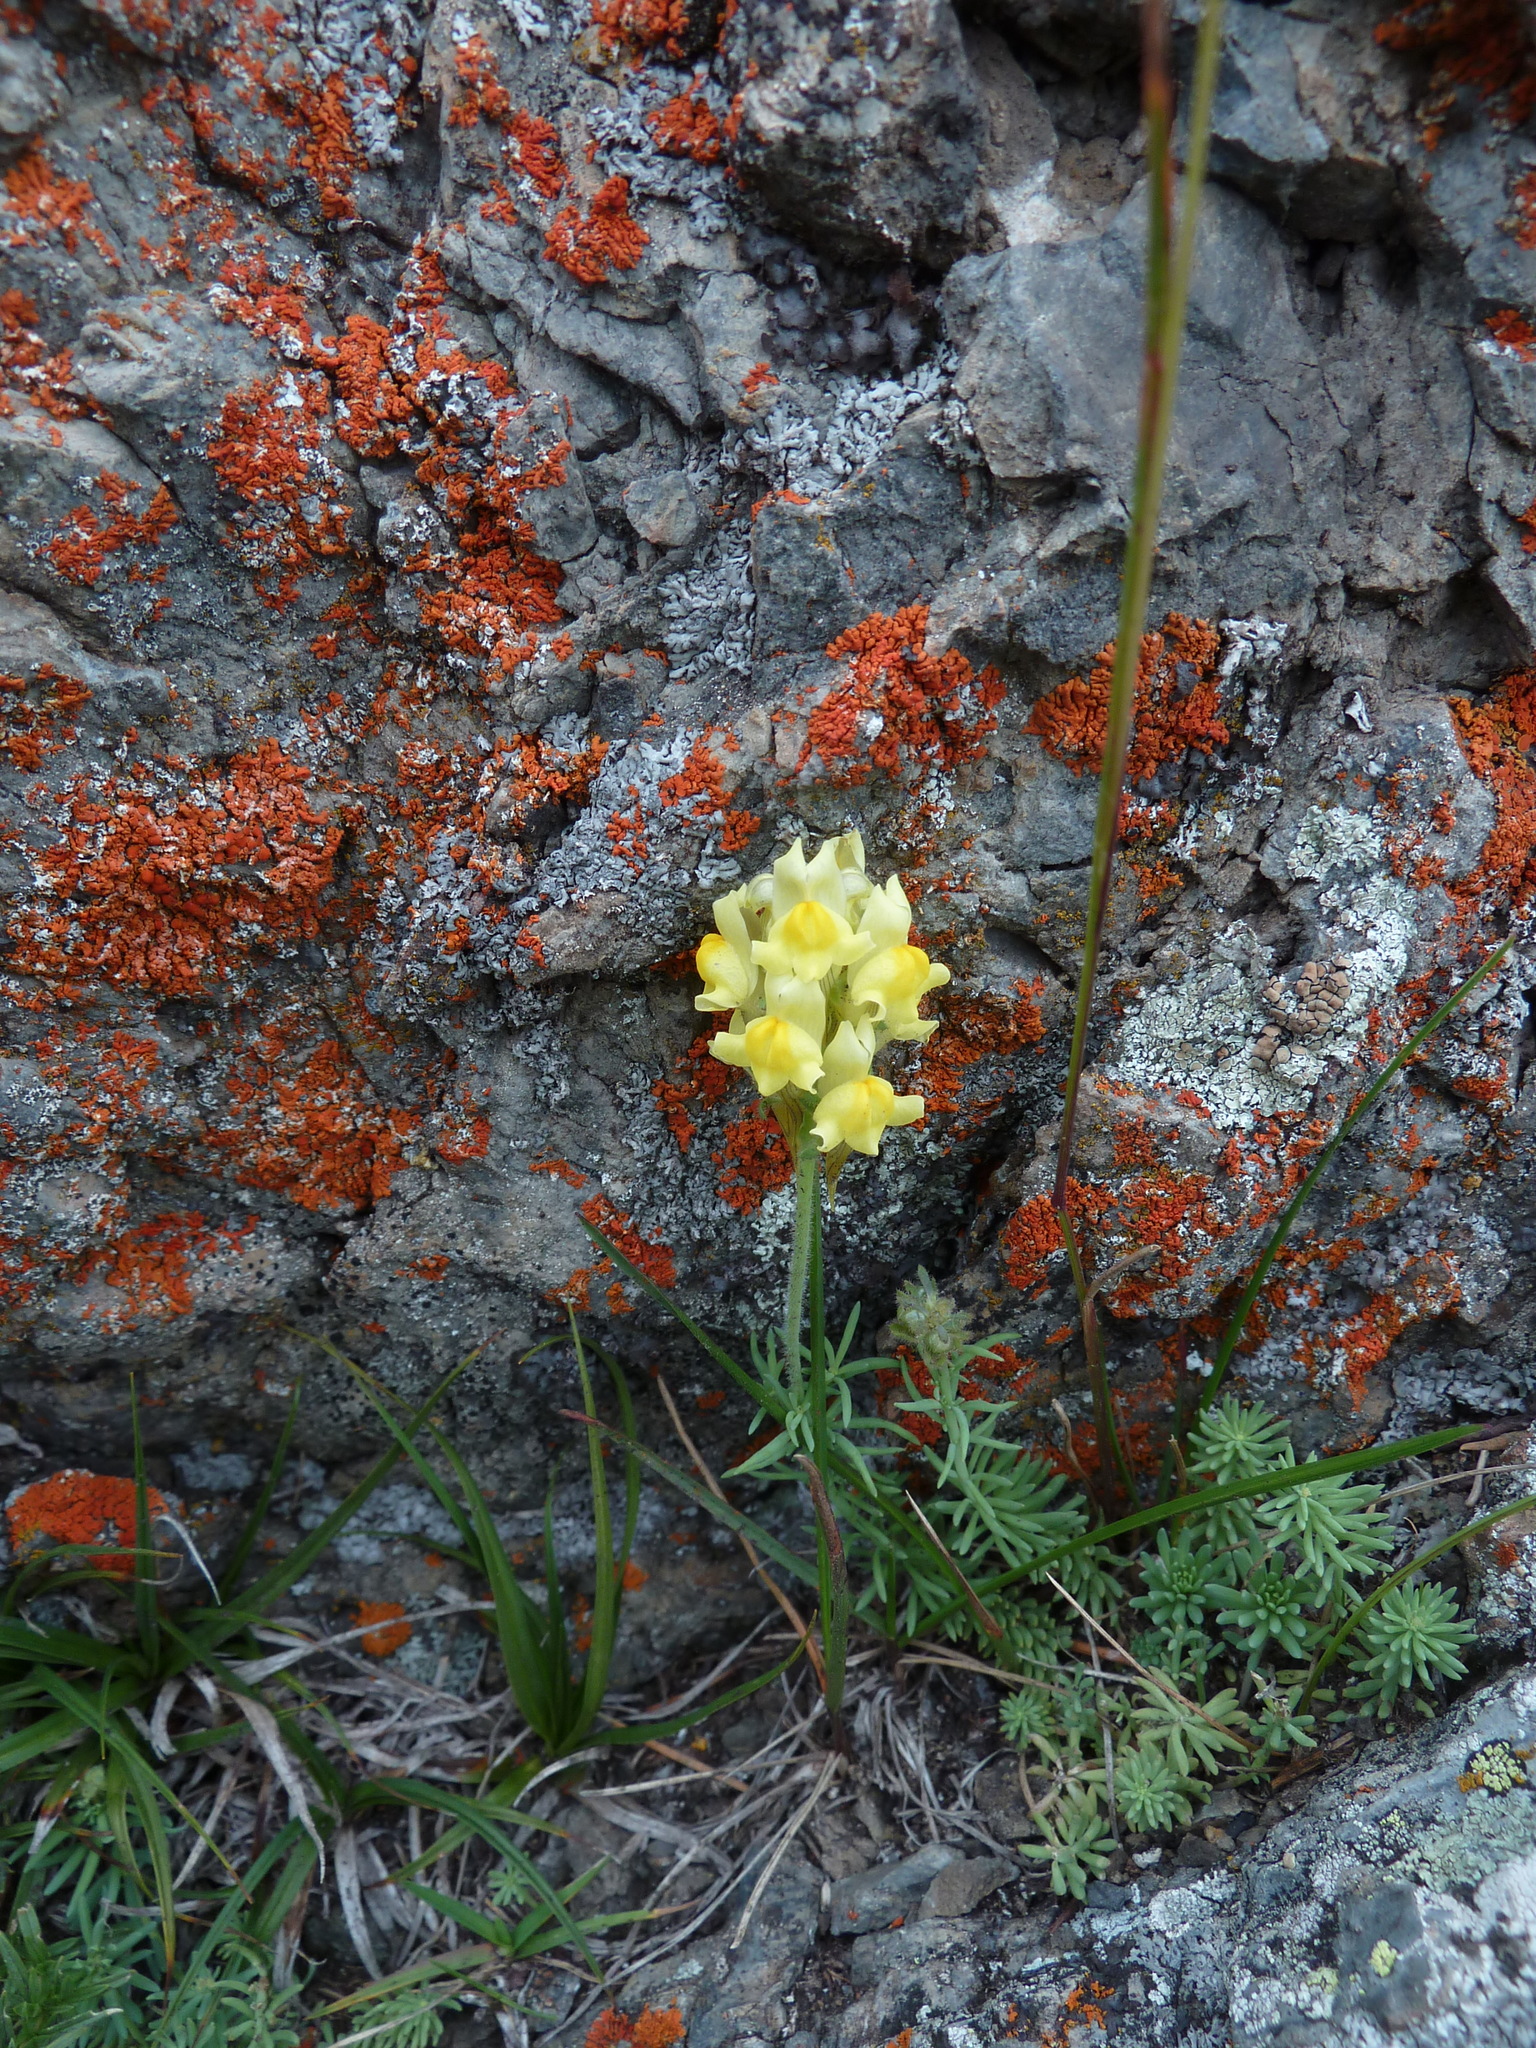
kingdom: Plantae
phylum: Tracheophyta
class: Magnoliopsida
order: Lamiales
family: Plantaginaceae
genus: Linaria
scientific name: Linaria supina
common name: Prostrate toadflax
